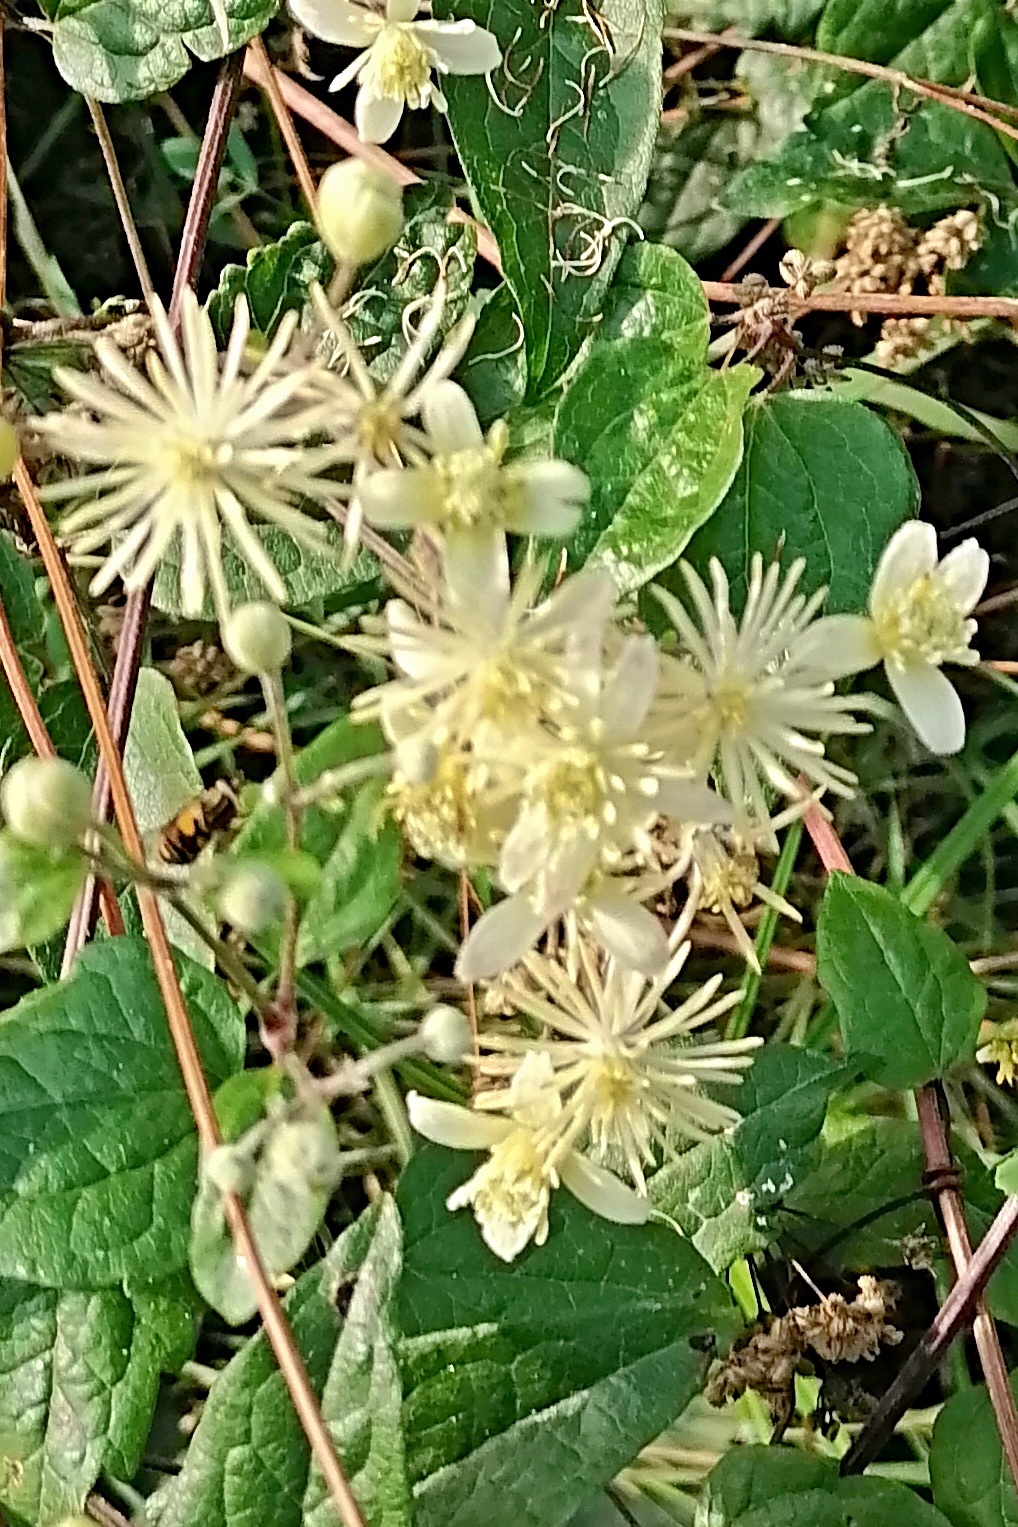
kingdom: Plantae
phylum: Tracheophyta
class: Magnoliopsida
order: Ranunculales
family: Ranunculaceae
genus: Clematis
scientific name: Clematis vitalba
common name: Evergreen clematis
